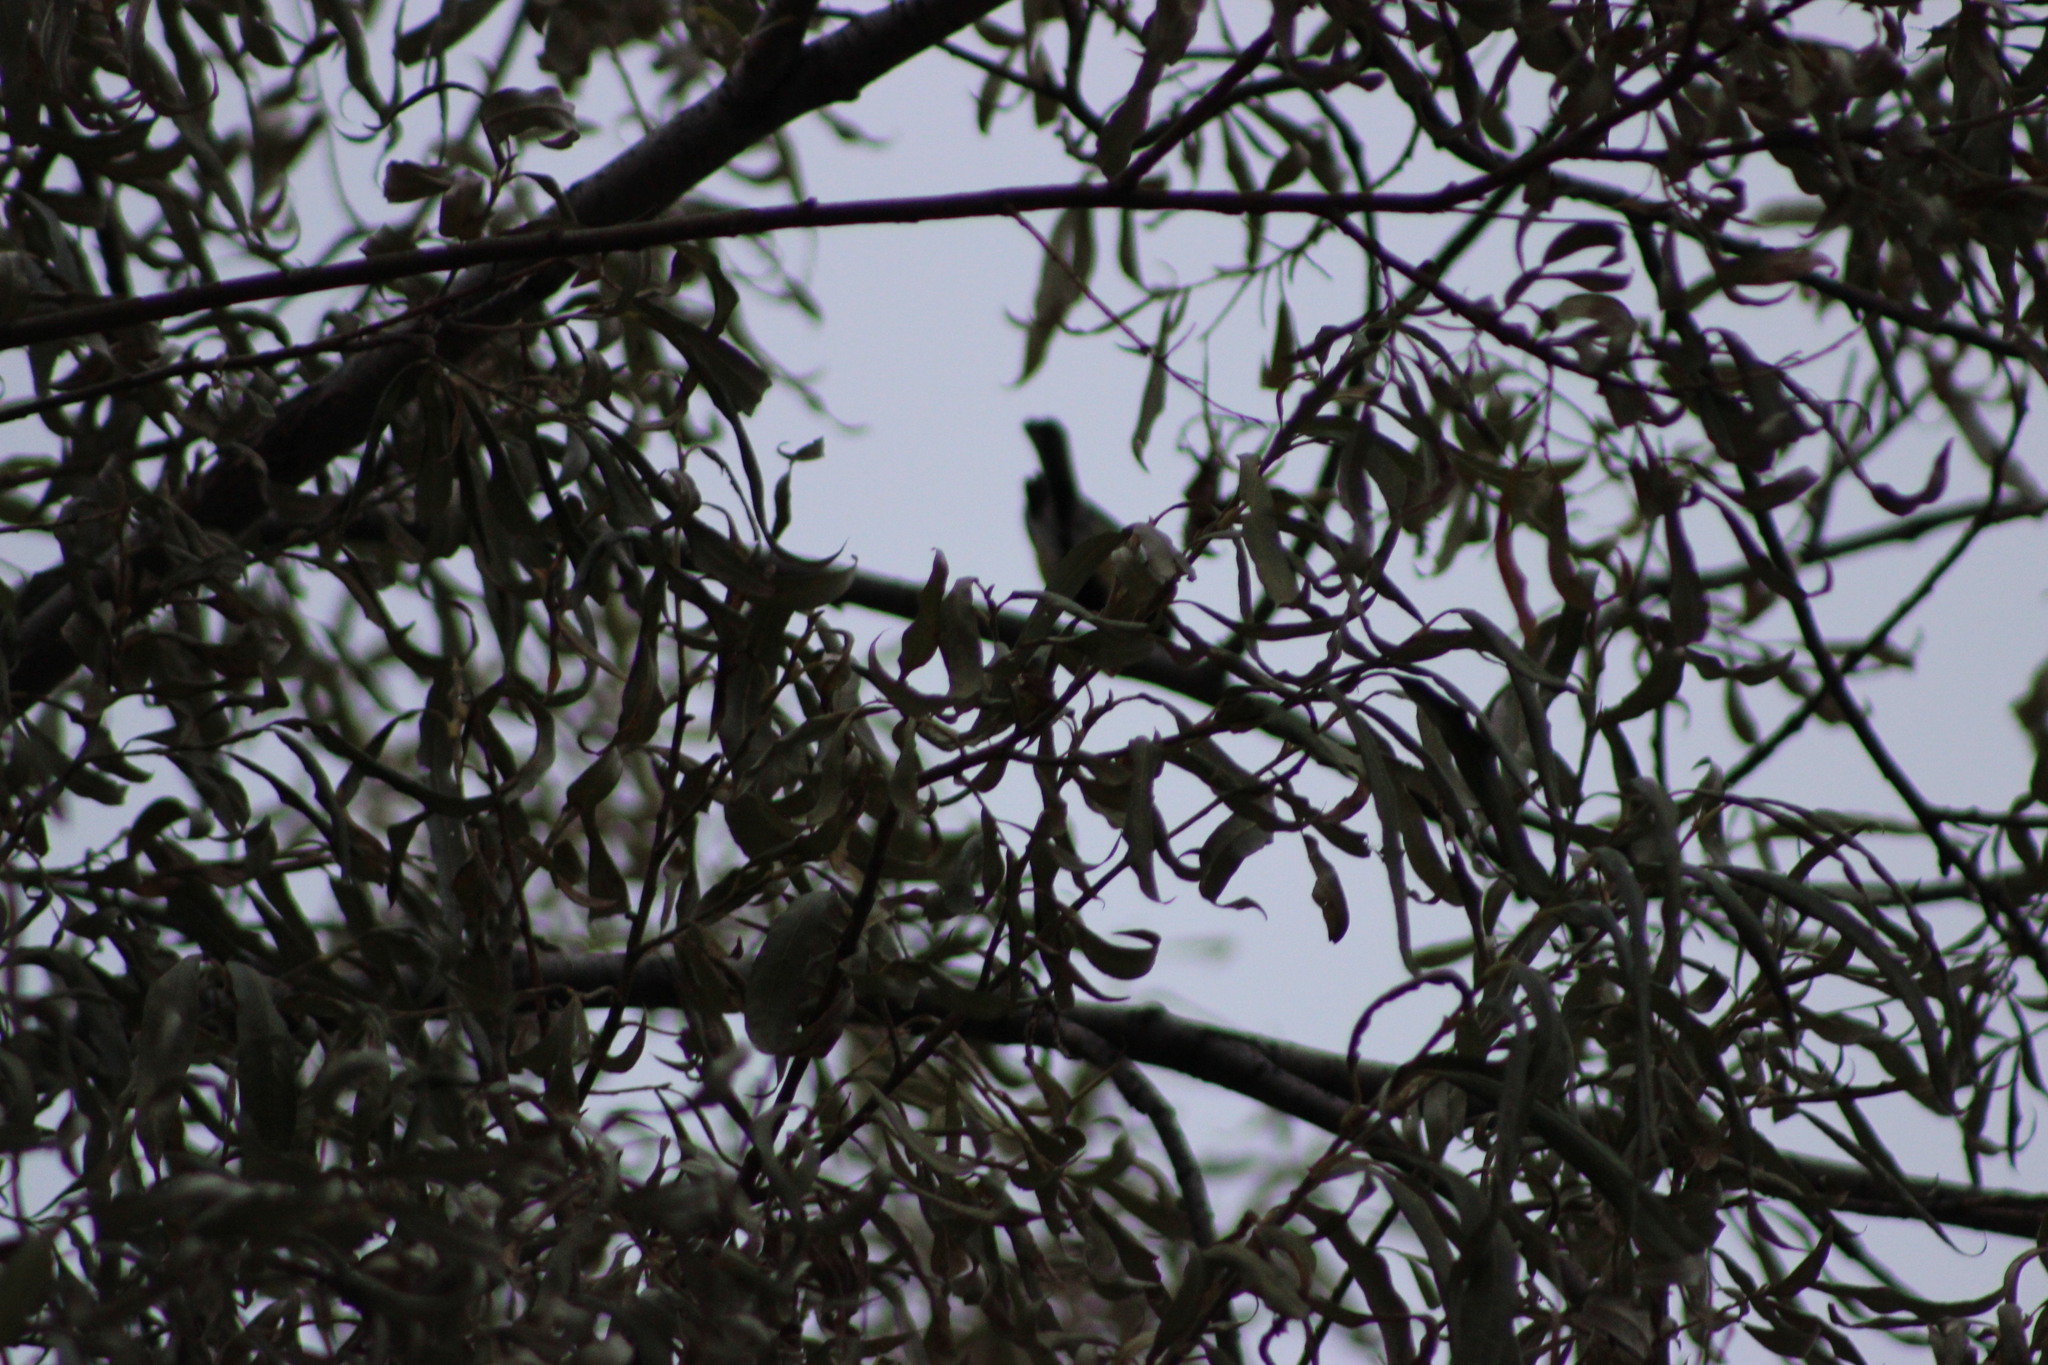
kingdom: Animalia
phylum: Chordata
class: Aves
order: Passeriformes
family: Paridae
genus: Parus
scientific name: Parus major
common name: Great tit
